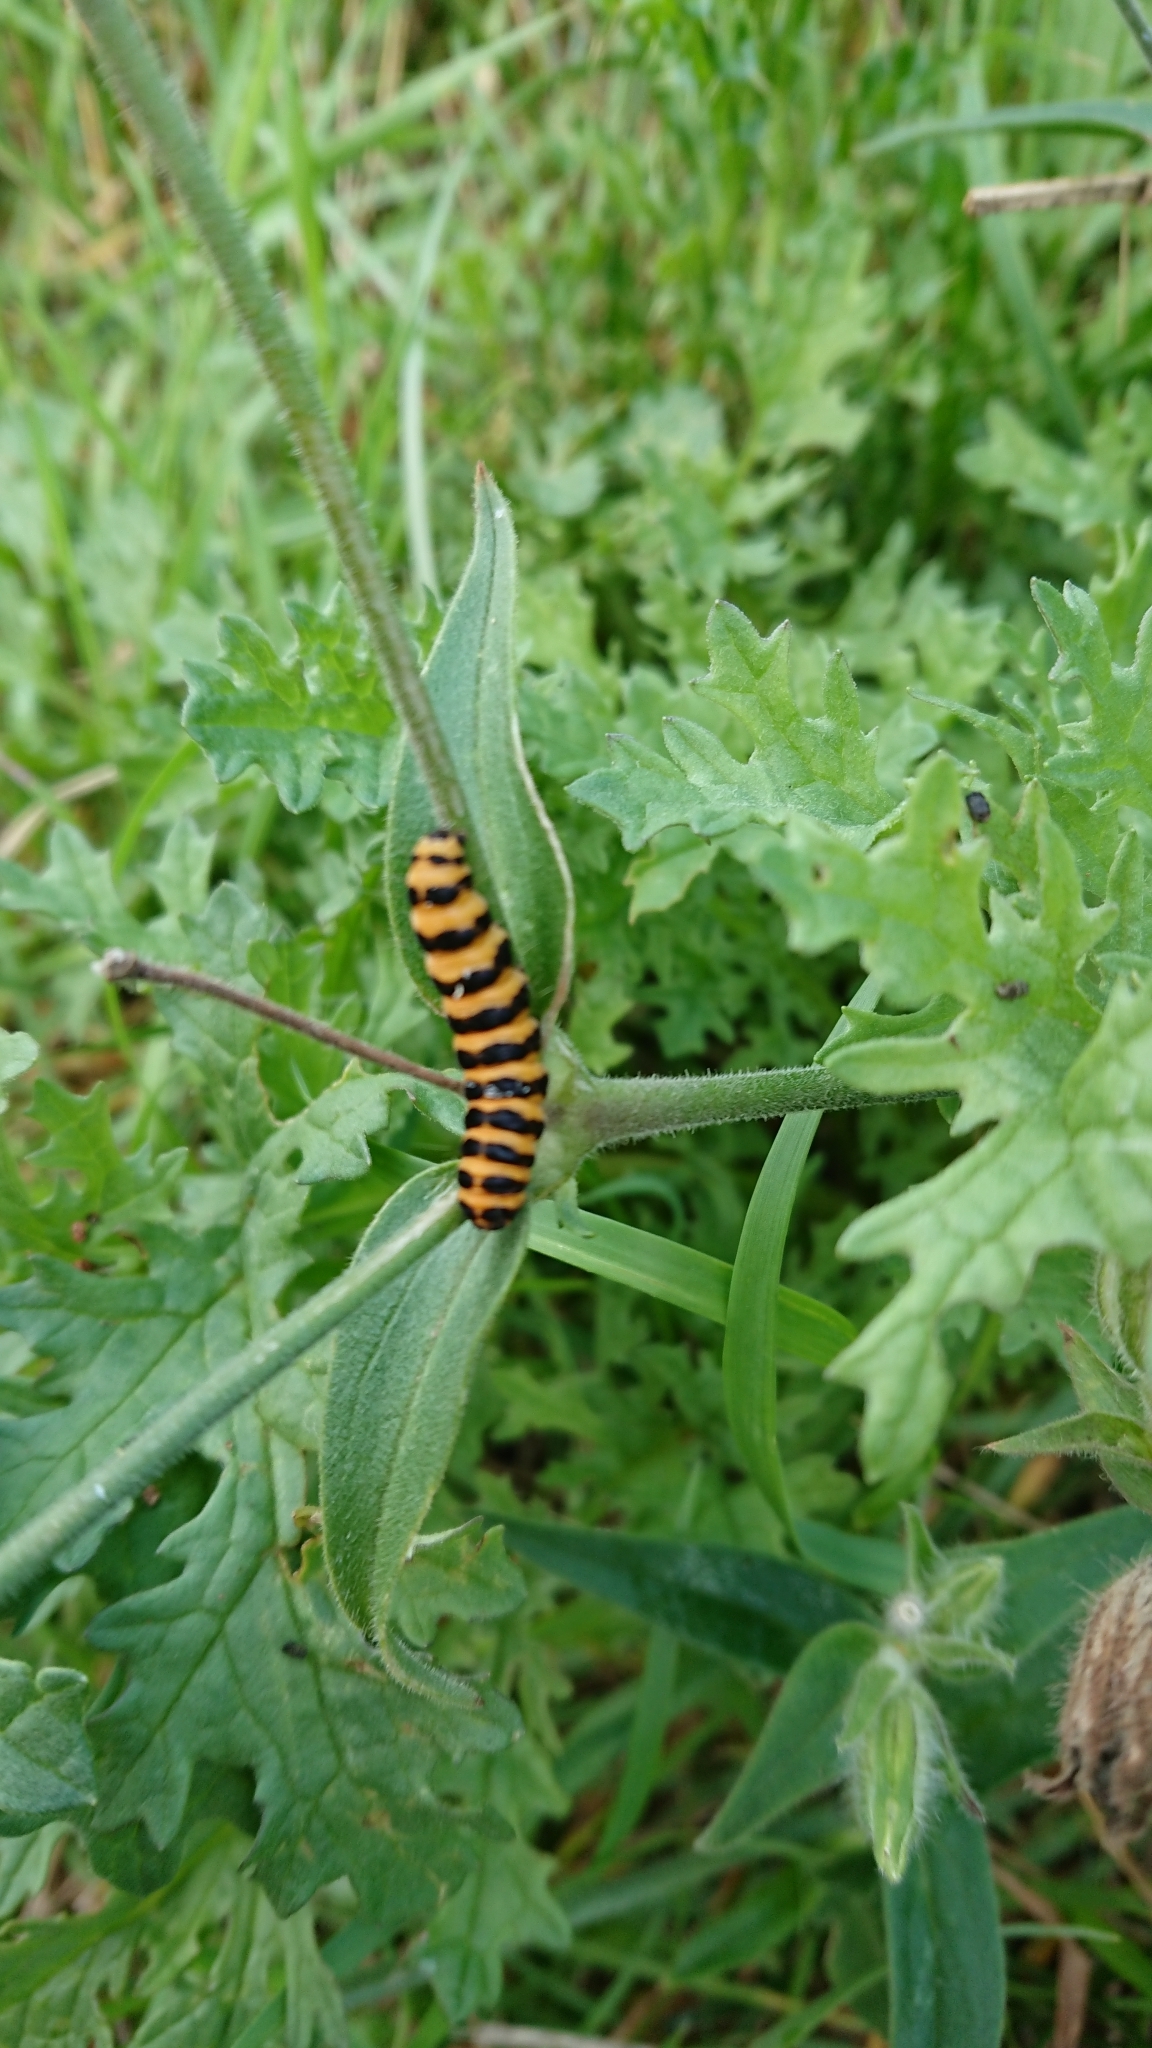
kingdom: Animalia
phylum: Arthropoda
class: Insecta
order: Lepidoptera
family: Erebidae
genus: Tyria
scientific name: Tyria jacobaeae
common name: Cinnabar
